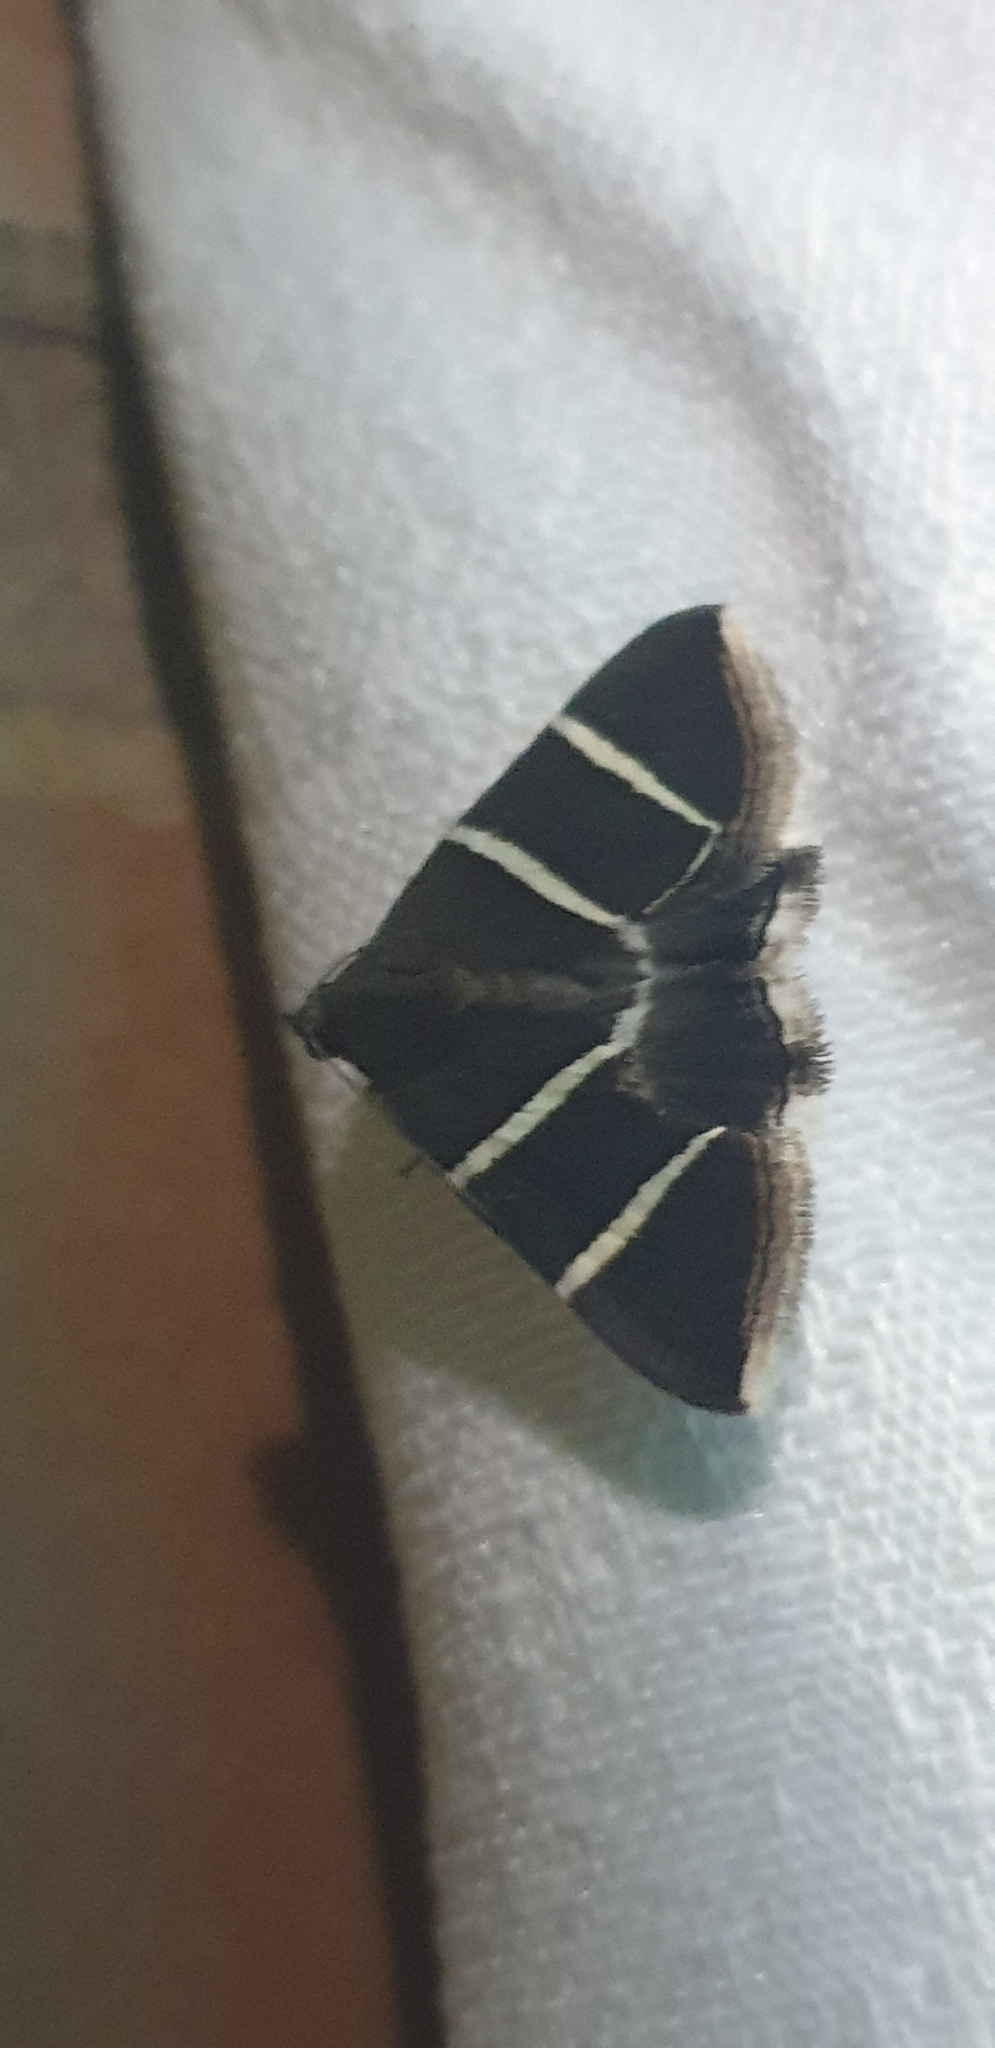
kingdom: Animalia
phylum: Arthropoda
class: Insecta
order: Lepidoptera
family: Erebidae
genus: Grammodes
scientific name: Grammodes justa
